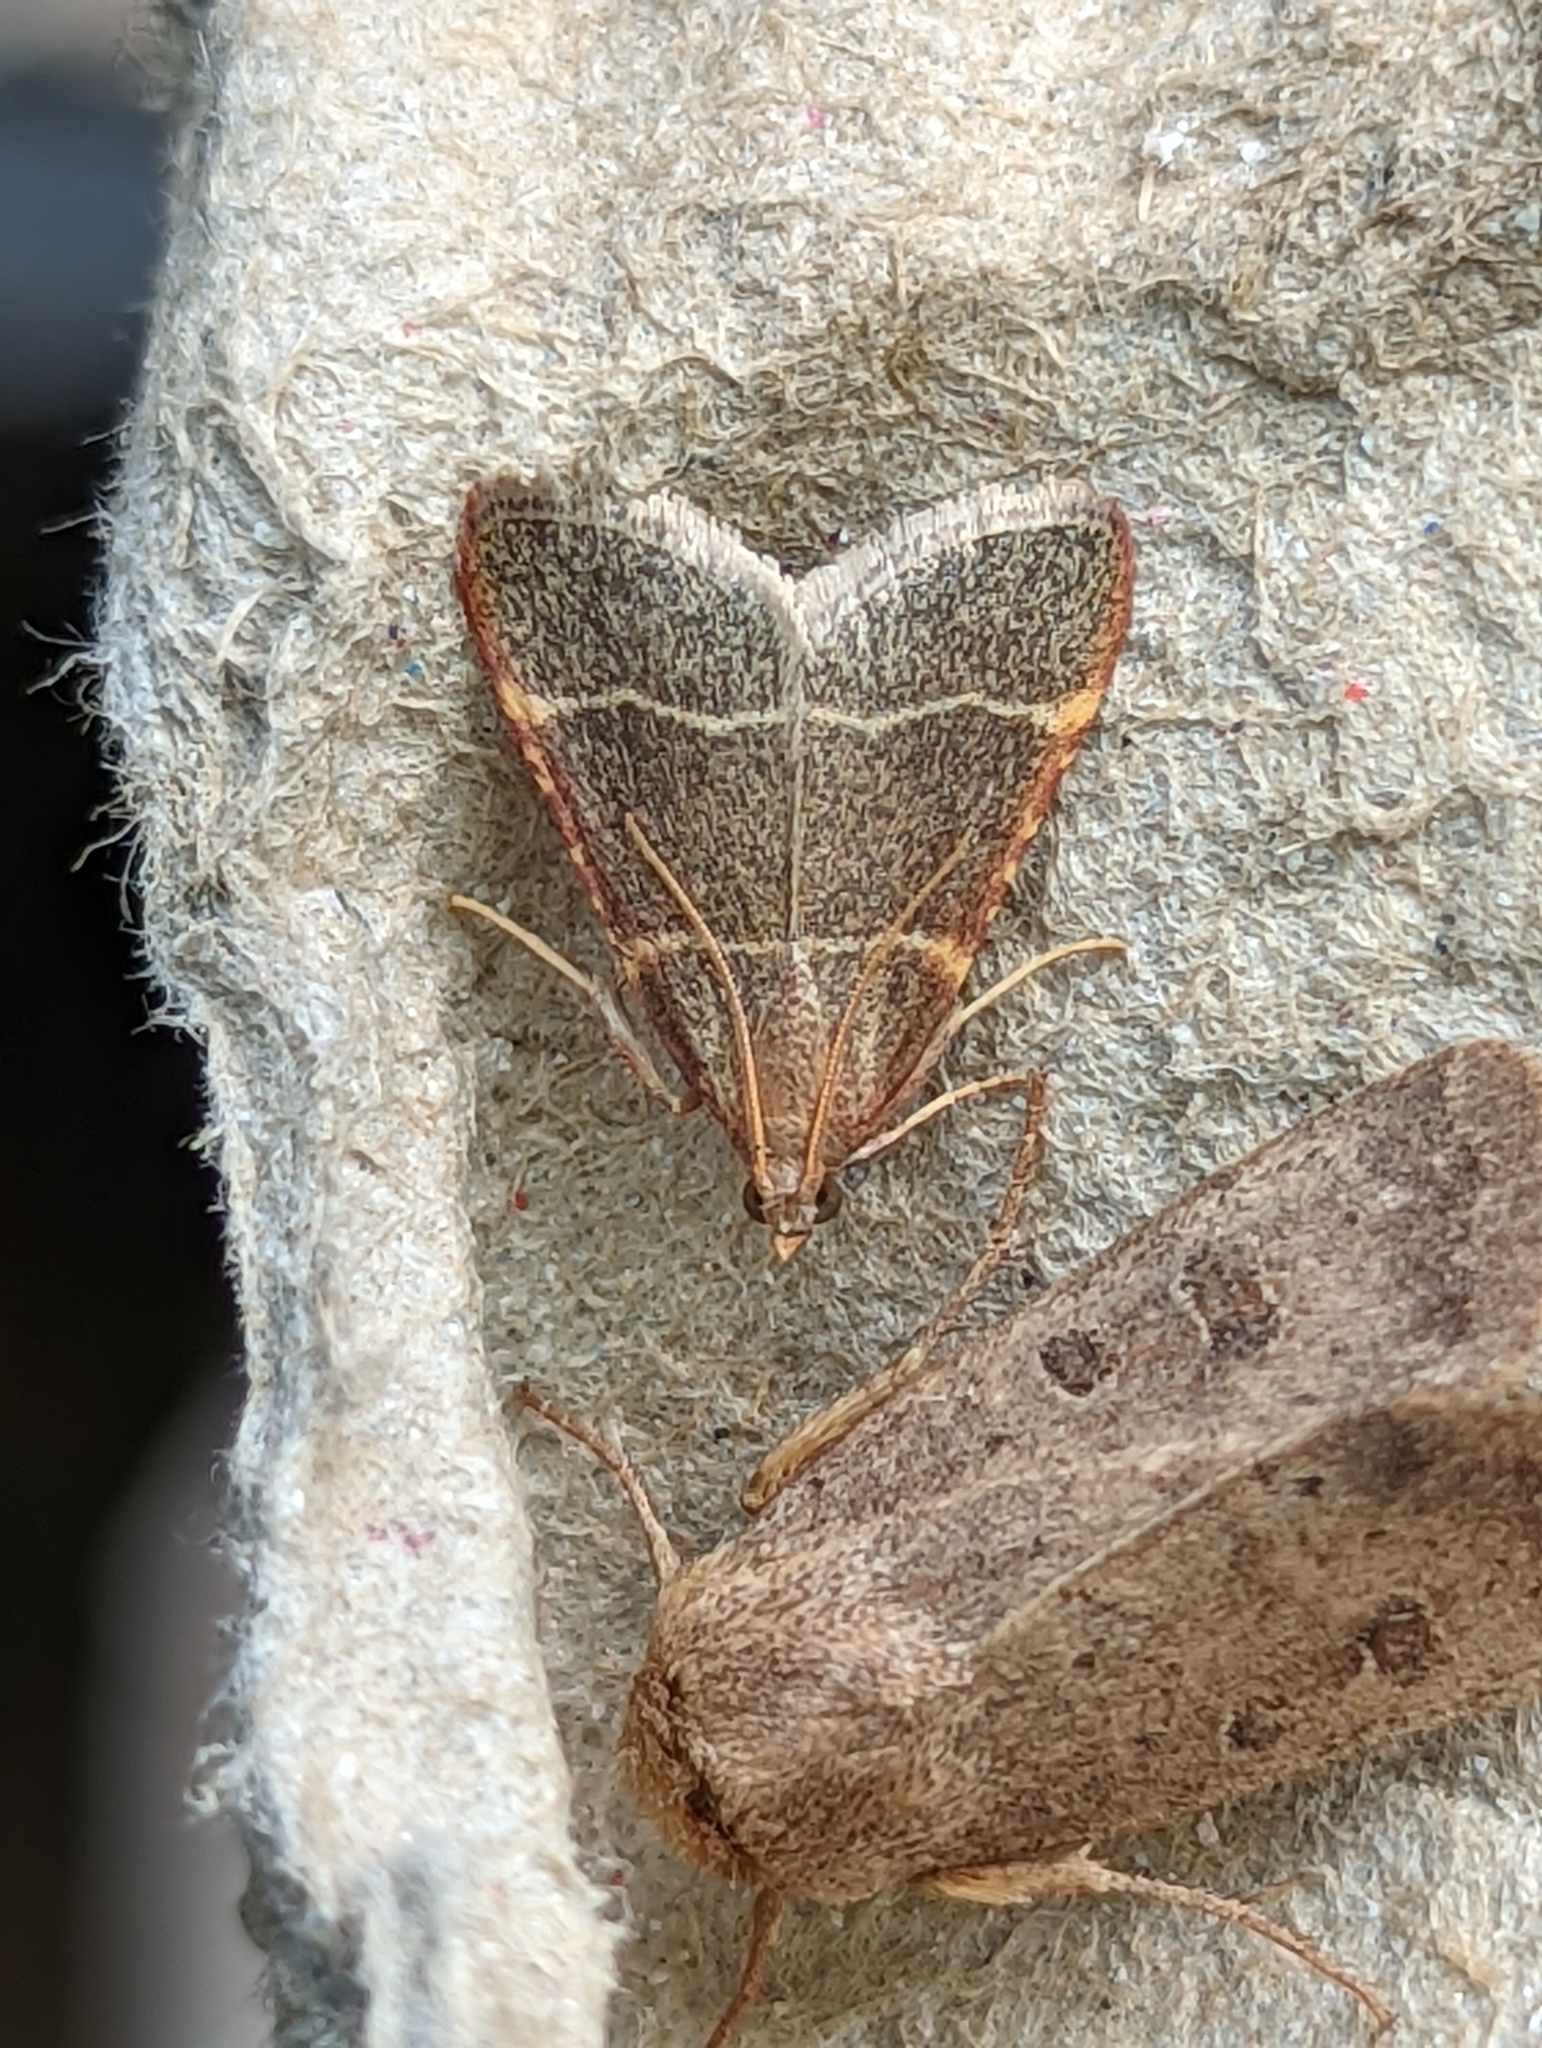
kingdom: Animalia
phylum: Arthropoda
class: Insecta
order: Lepidoptera
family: Pyralidae
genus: Hypsopygia
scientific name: Hypsopygia glaucinalis
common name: Double-striped tabby
